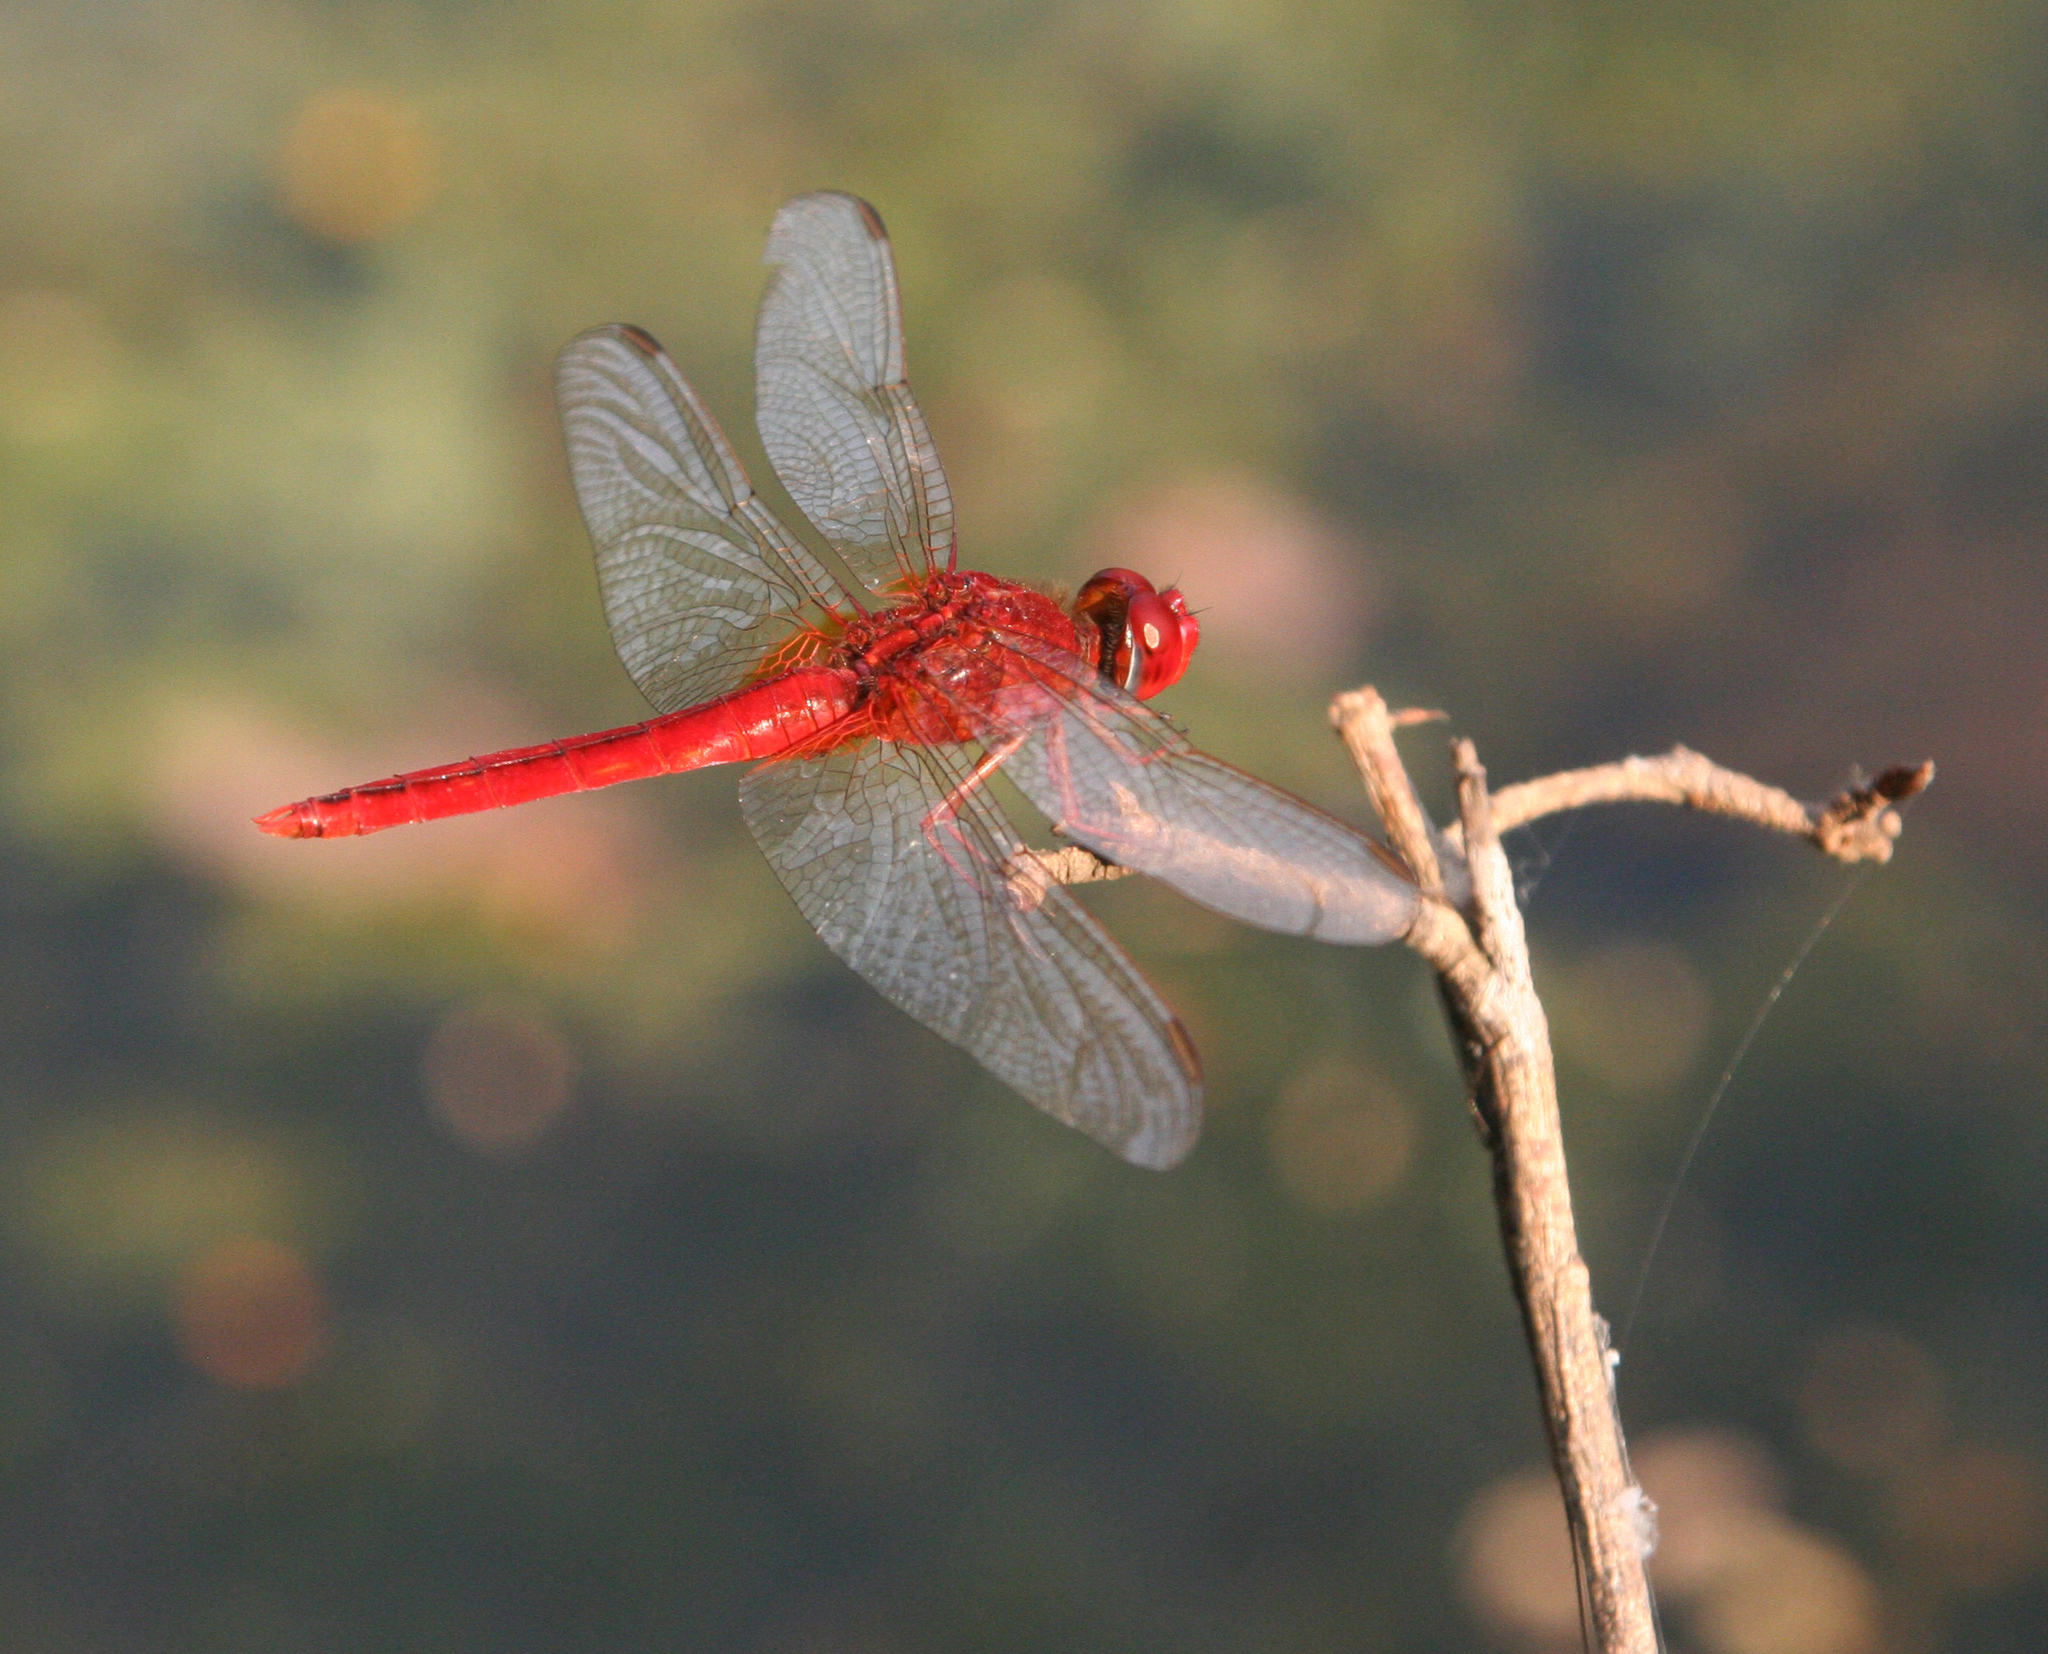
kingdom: Animalia
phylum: Arthropoda
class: Insecta
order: Odonata
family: Libellulidae
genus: Crocothemis
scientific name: Crocothemis servilia
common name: Scarlet skimmer
